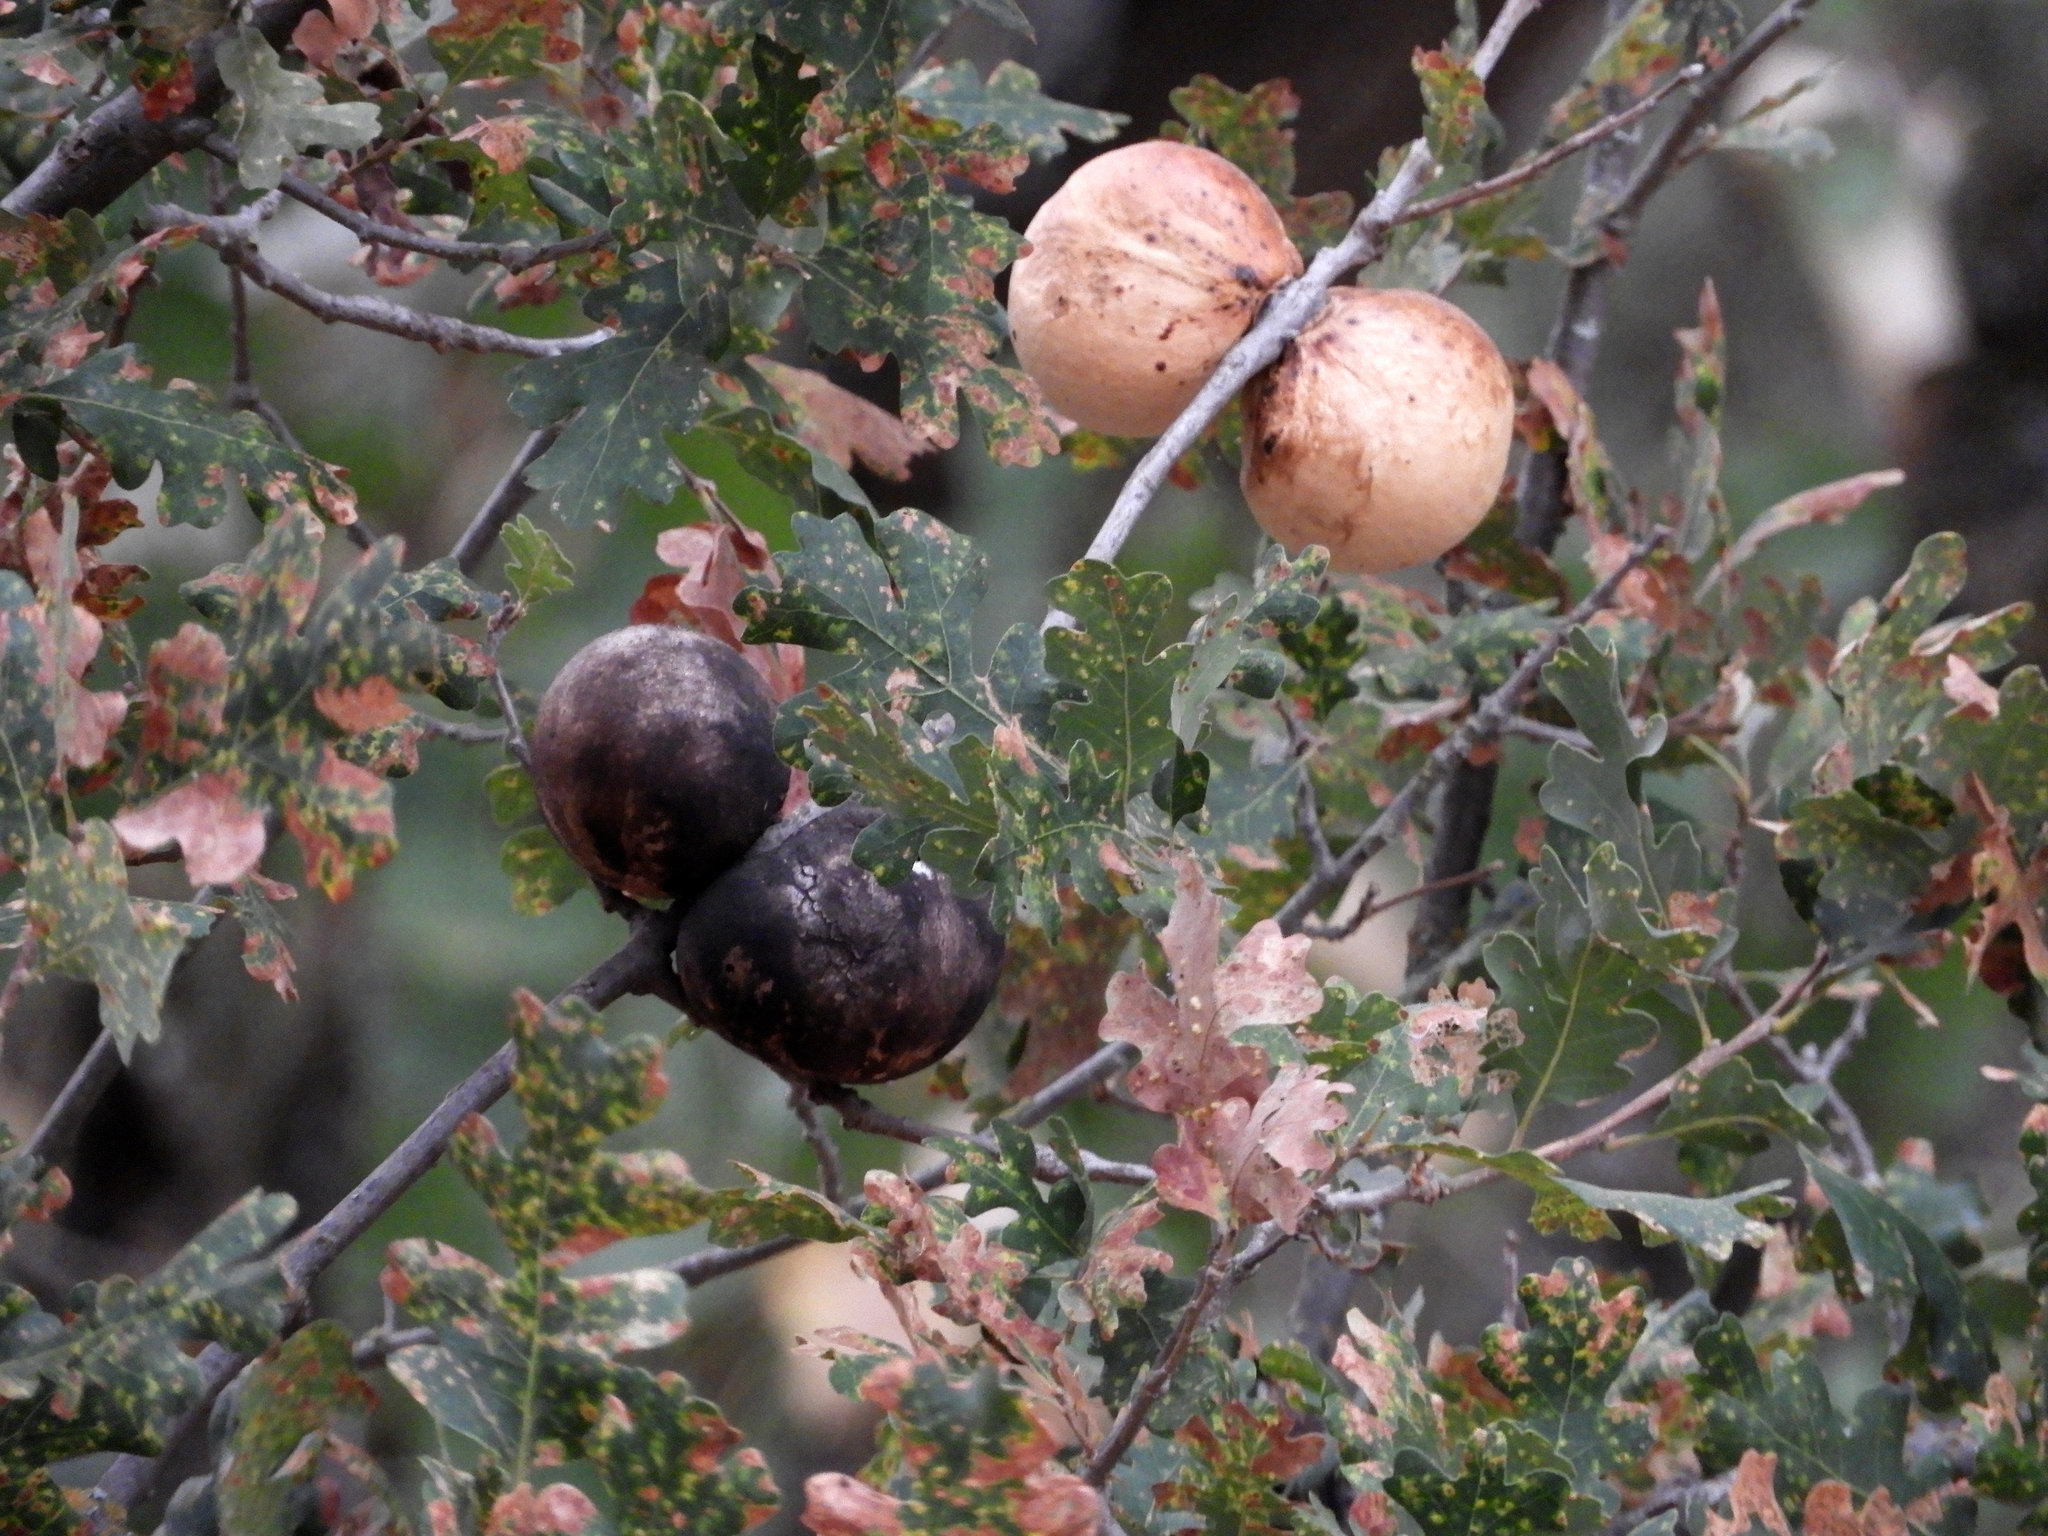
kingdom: Animalia
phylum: Arthropoda
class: Insecta
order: Hymenoptera
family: Cynipidae
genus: Andricus
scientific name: Andricus quercuscalifornicus
